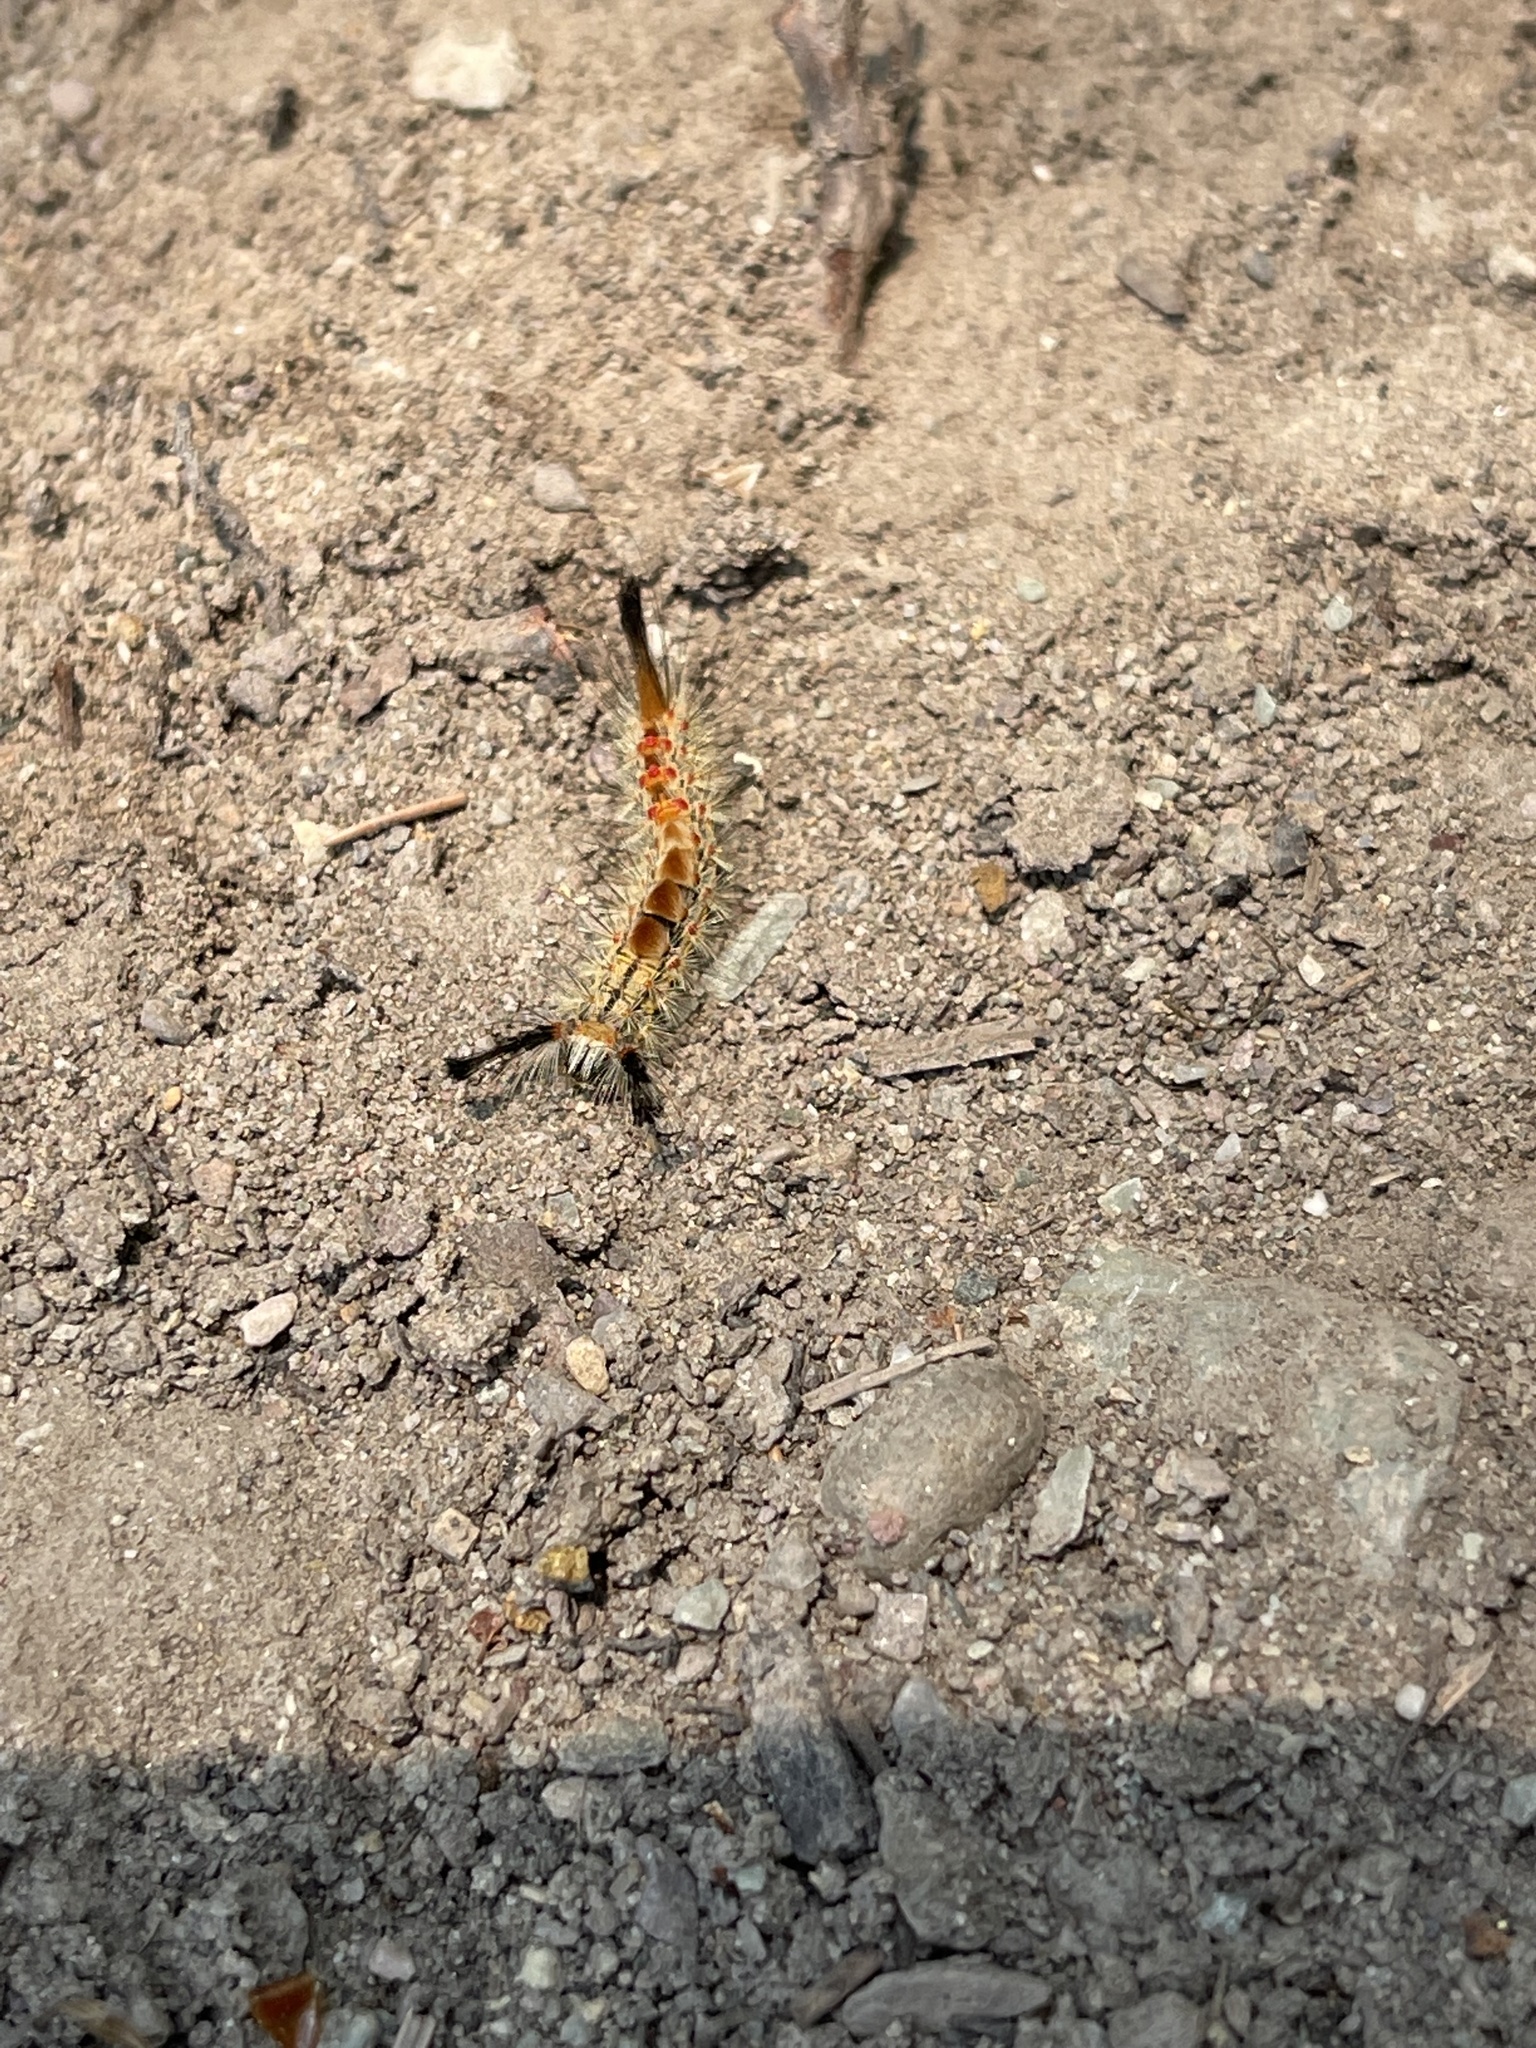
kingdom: Animalia
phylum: Arthropoda
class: Insecta
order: Lepidoptera
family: Erebidae
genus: Orgyia
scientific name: Orgyia pseudotsugata
